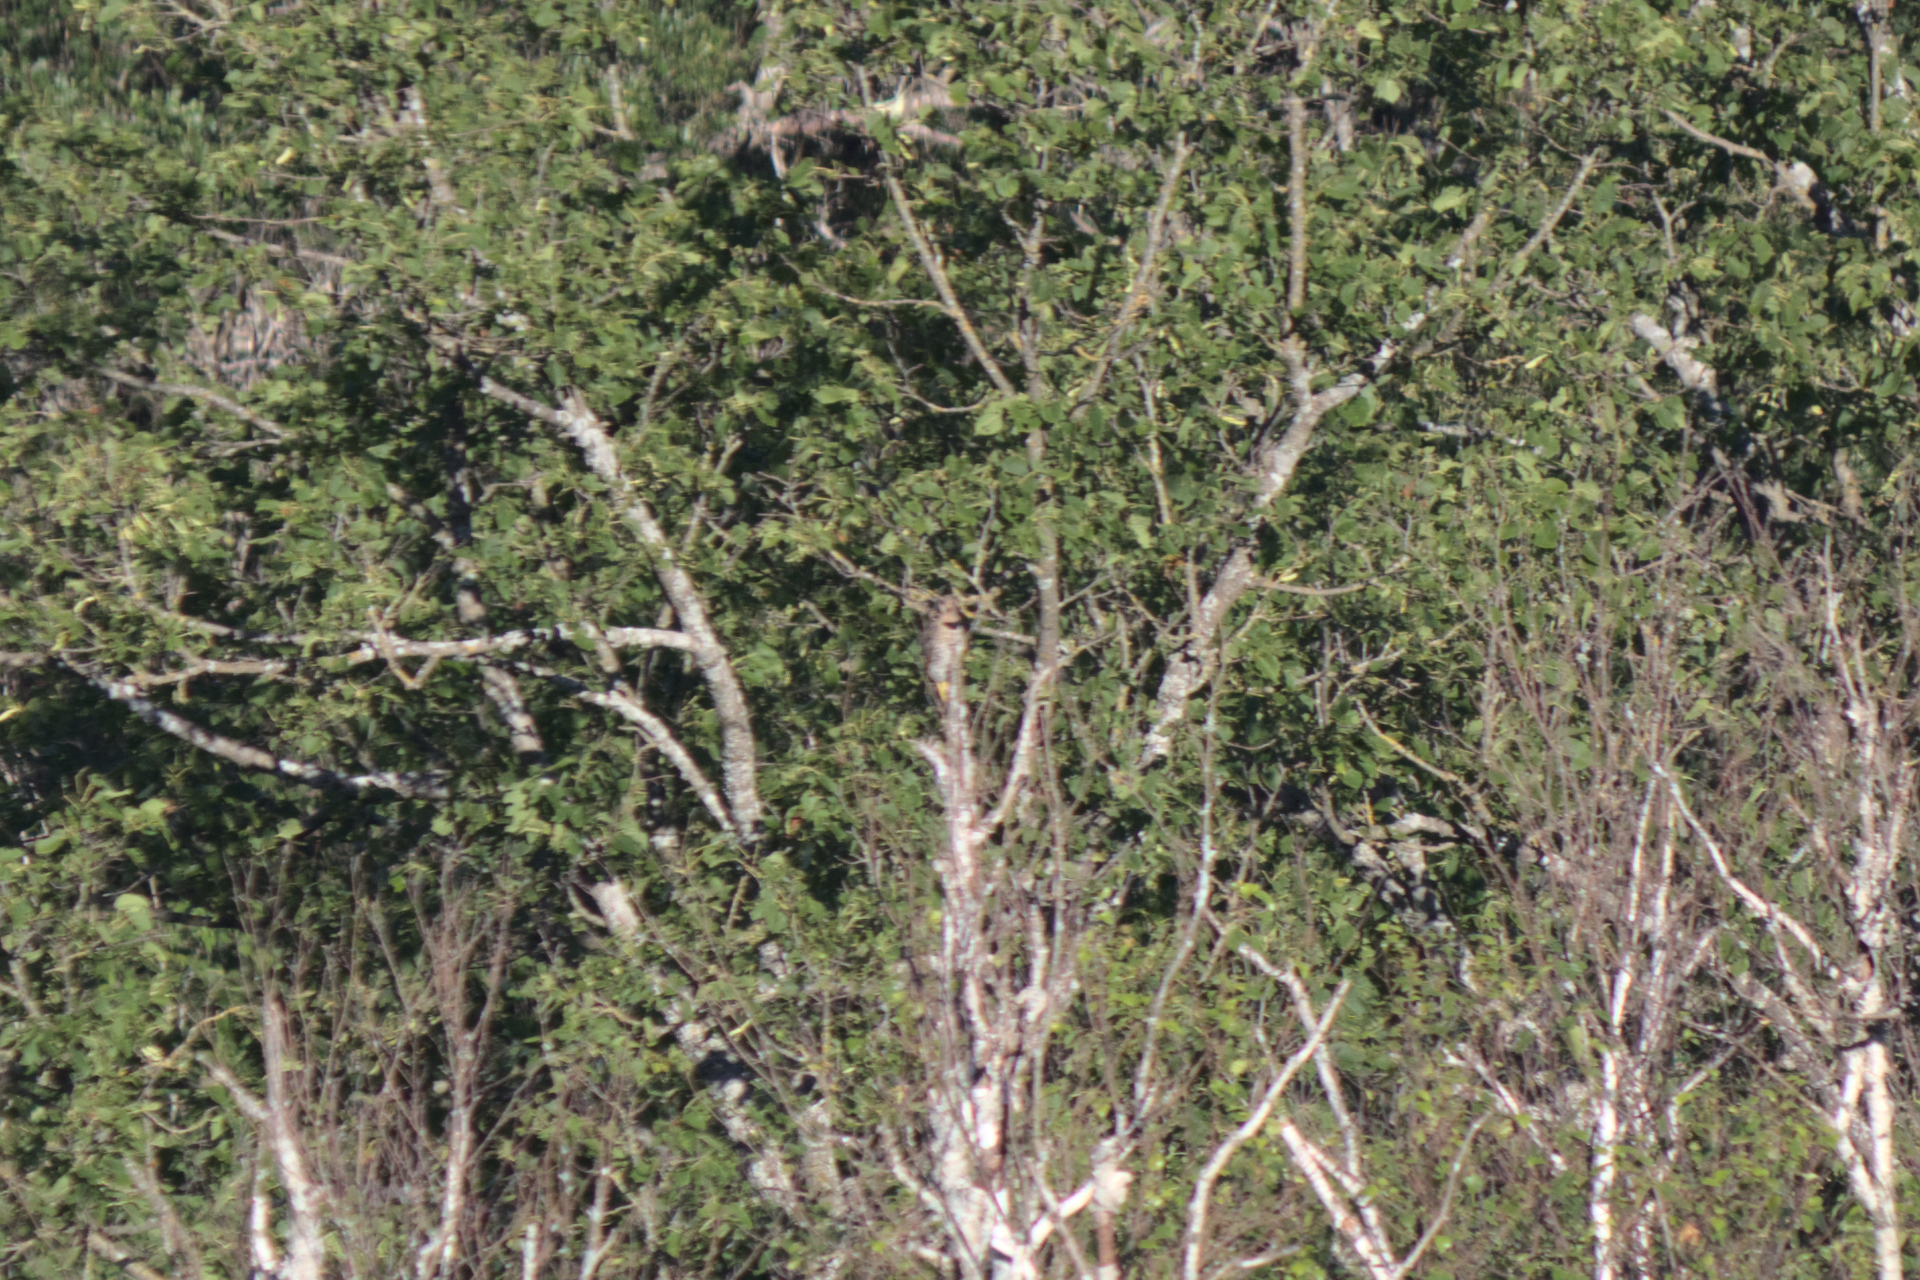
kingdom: Animalia
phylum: Chordata
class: Aves
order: Piciformes
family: Picidae
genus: Colaptes
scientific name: Colaptes auratus
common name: Northern flicker
